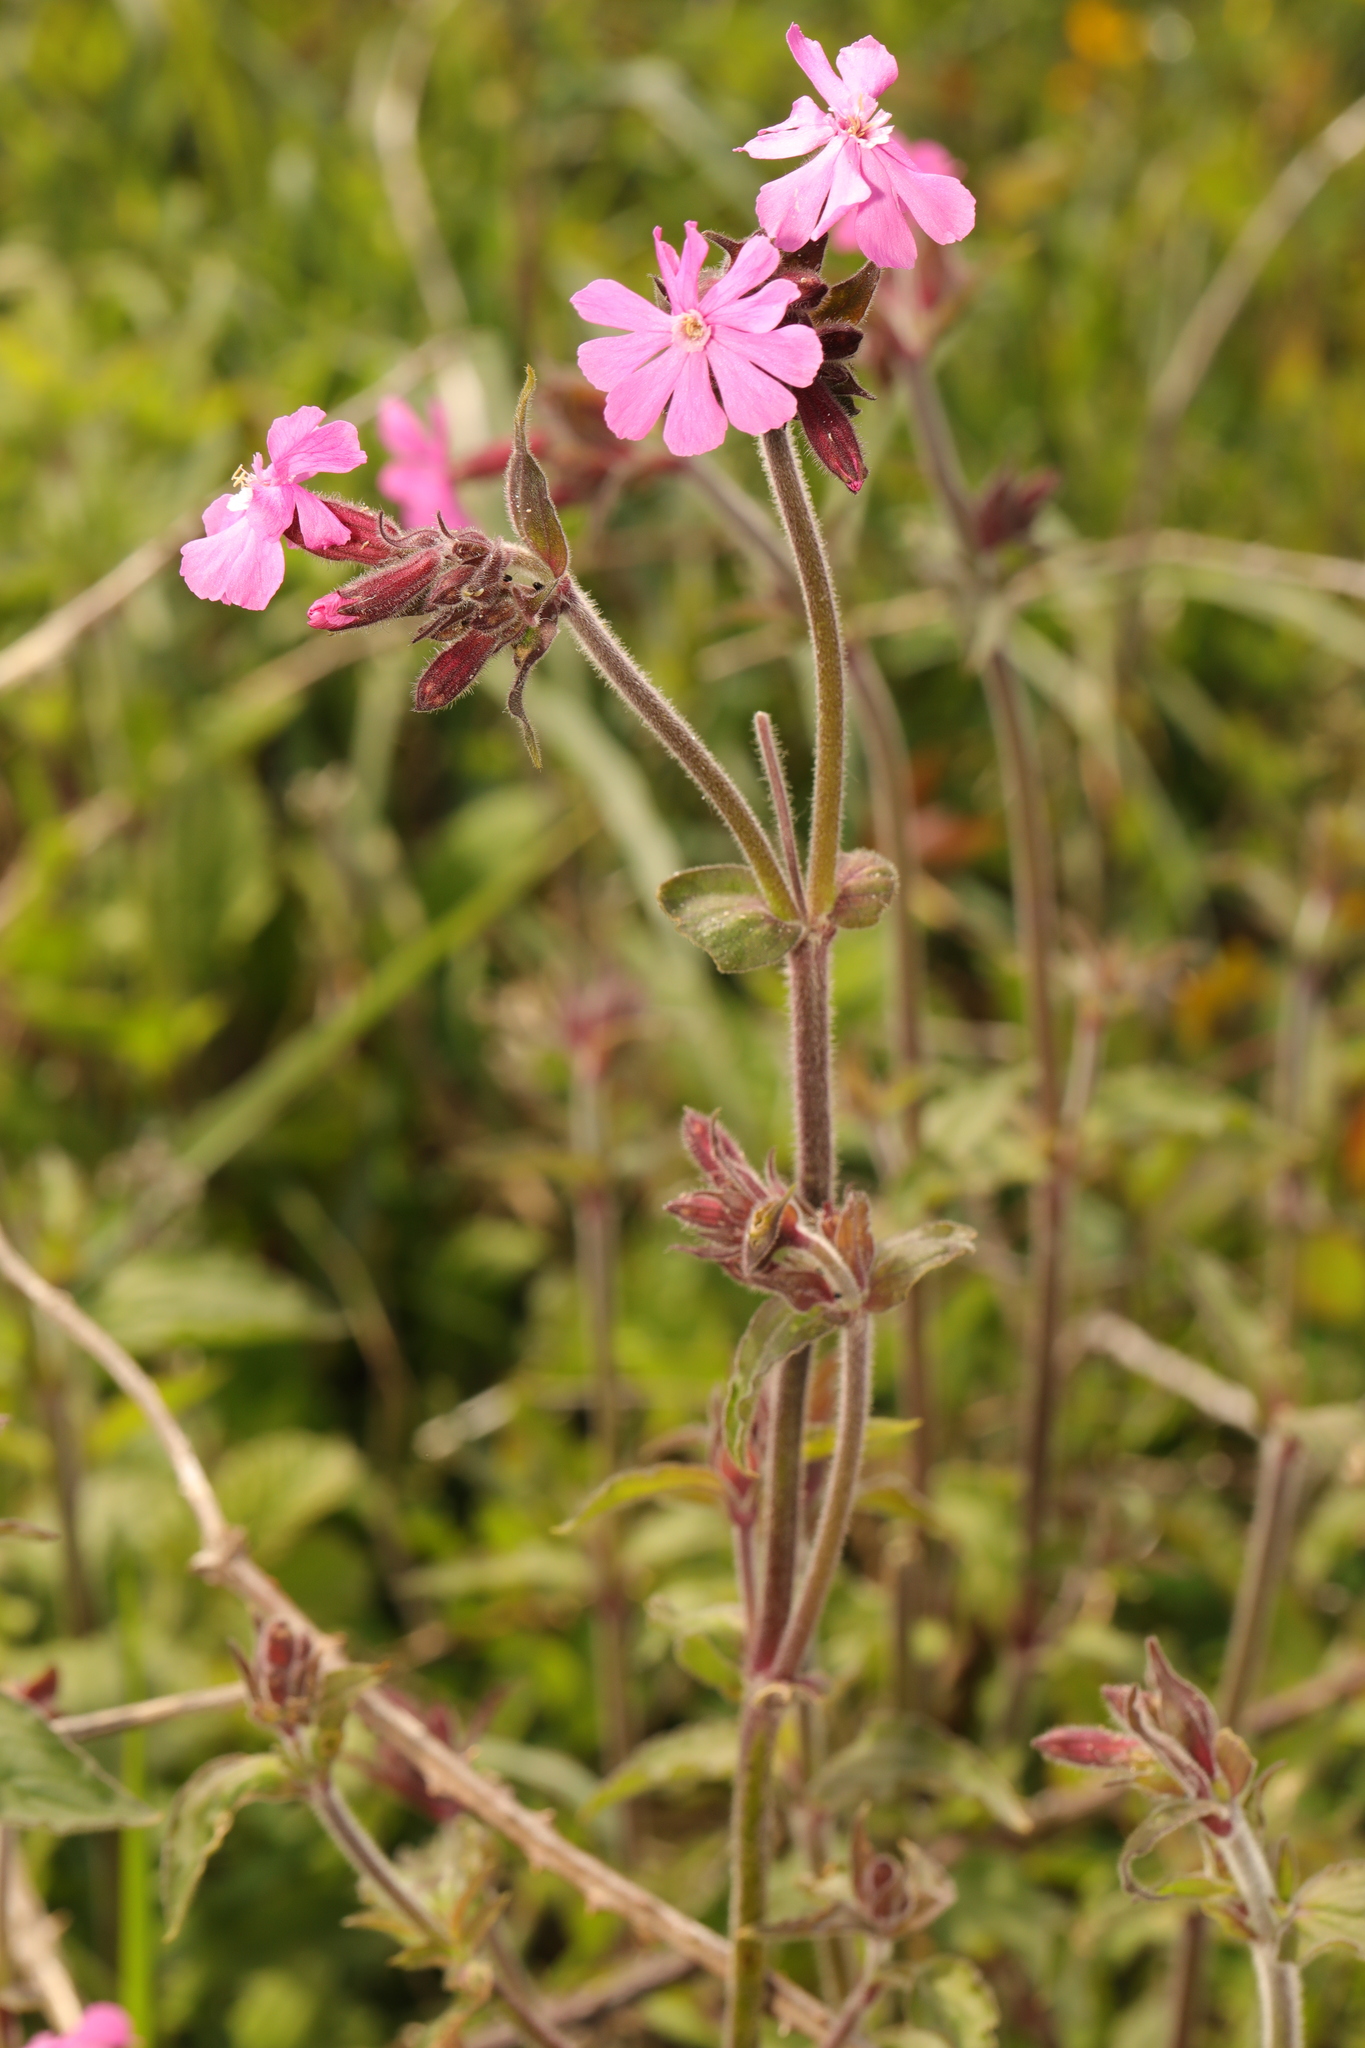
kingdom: Plantae
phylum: Tracheophyta
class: Magnoliopsida
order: Caryophyllales
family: Caryophyllaceae
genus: Silene
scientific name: Silene dioica
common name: Red campion
